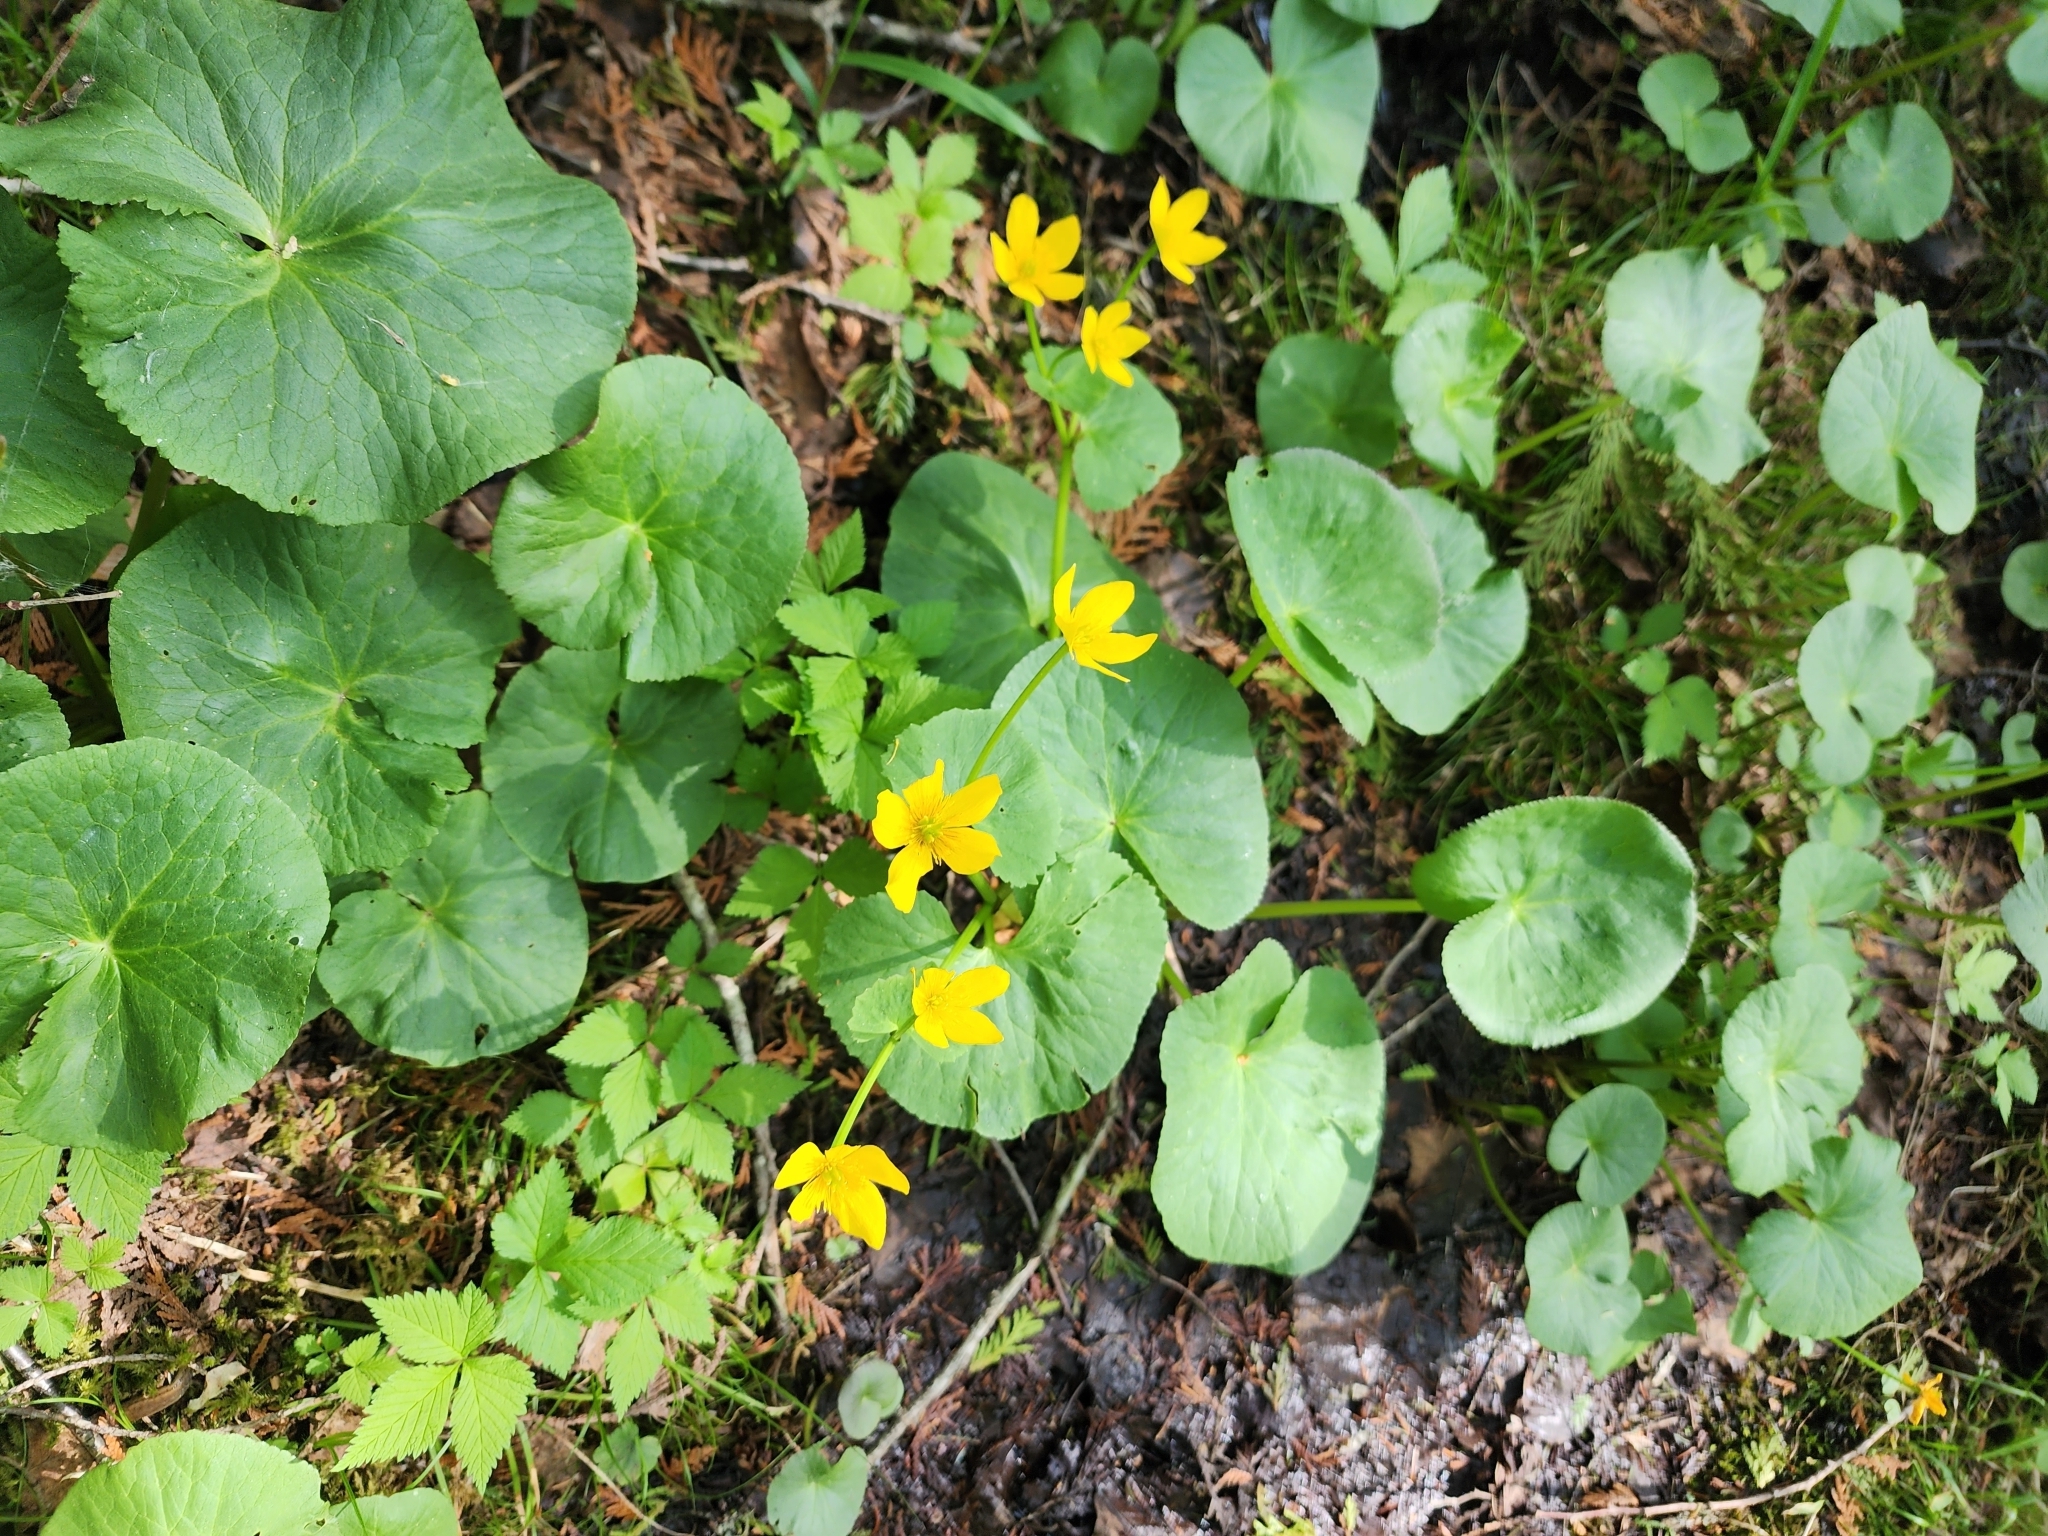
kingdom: Plantae
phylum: Tracheophyta
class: Magnoliopsida
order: Ranunculales
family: Ranunculaceae
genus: Caltha
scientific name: Caltha palustris
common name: Marsh marigold
